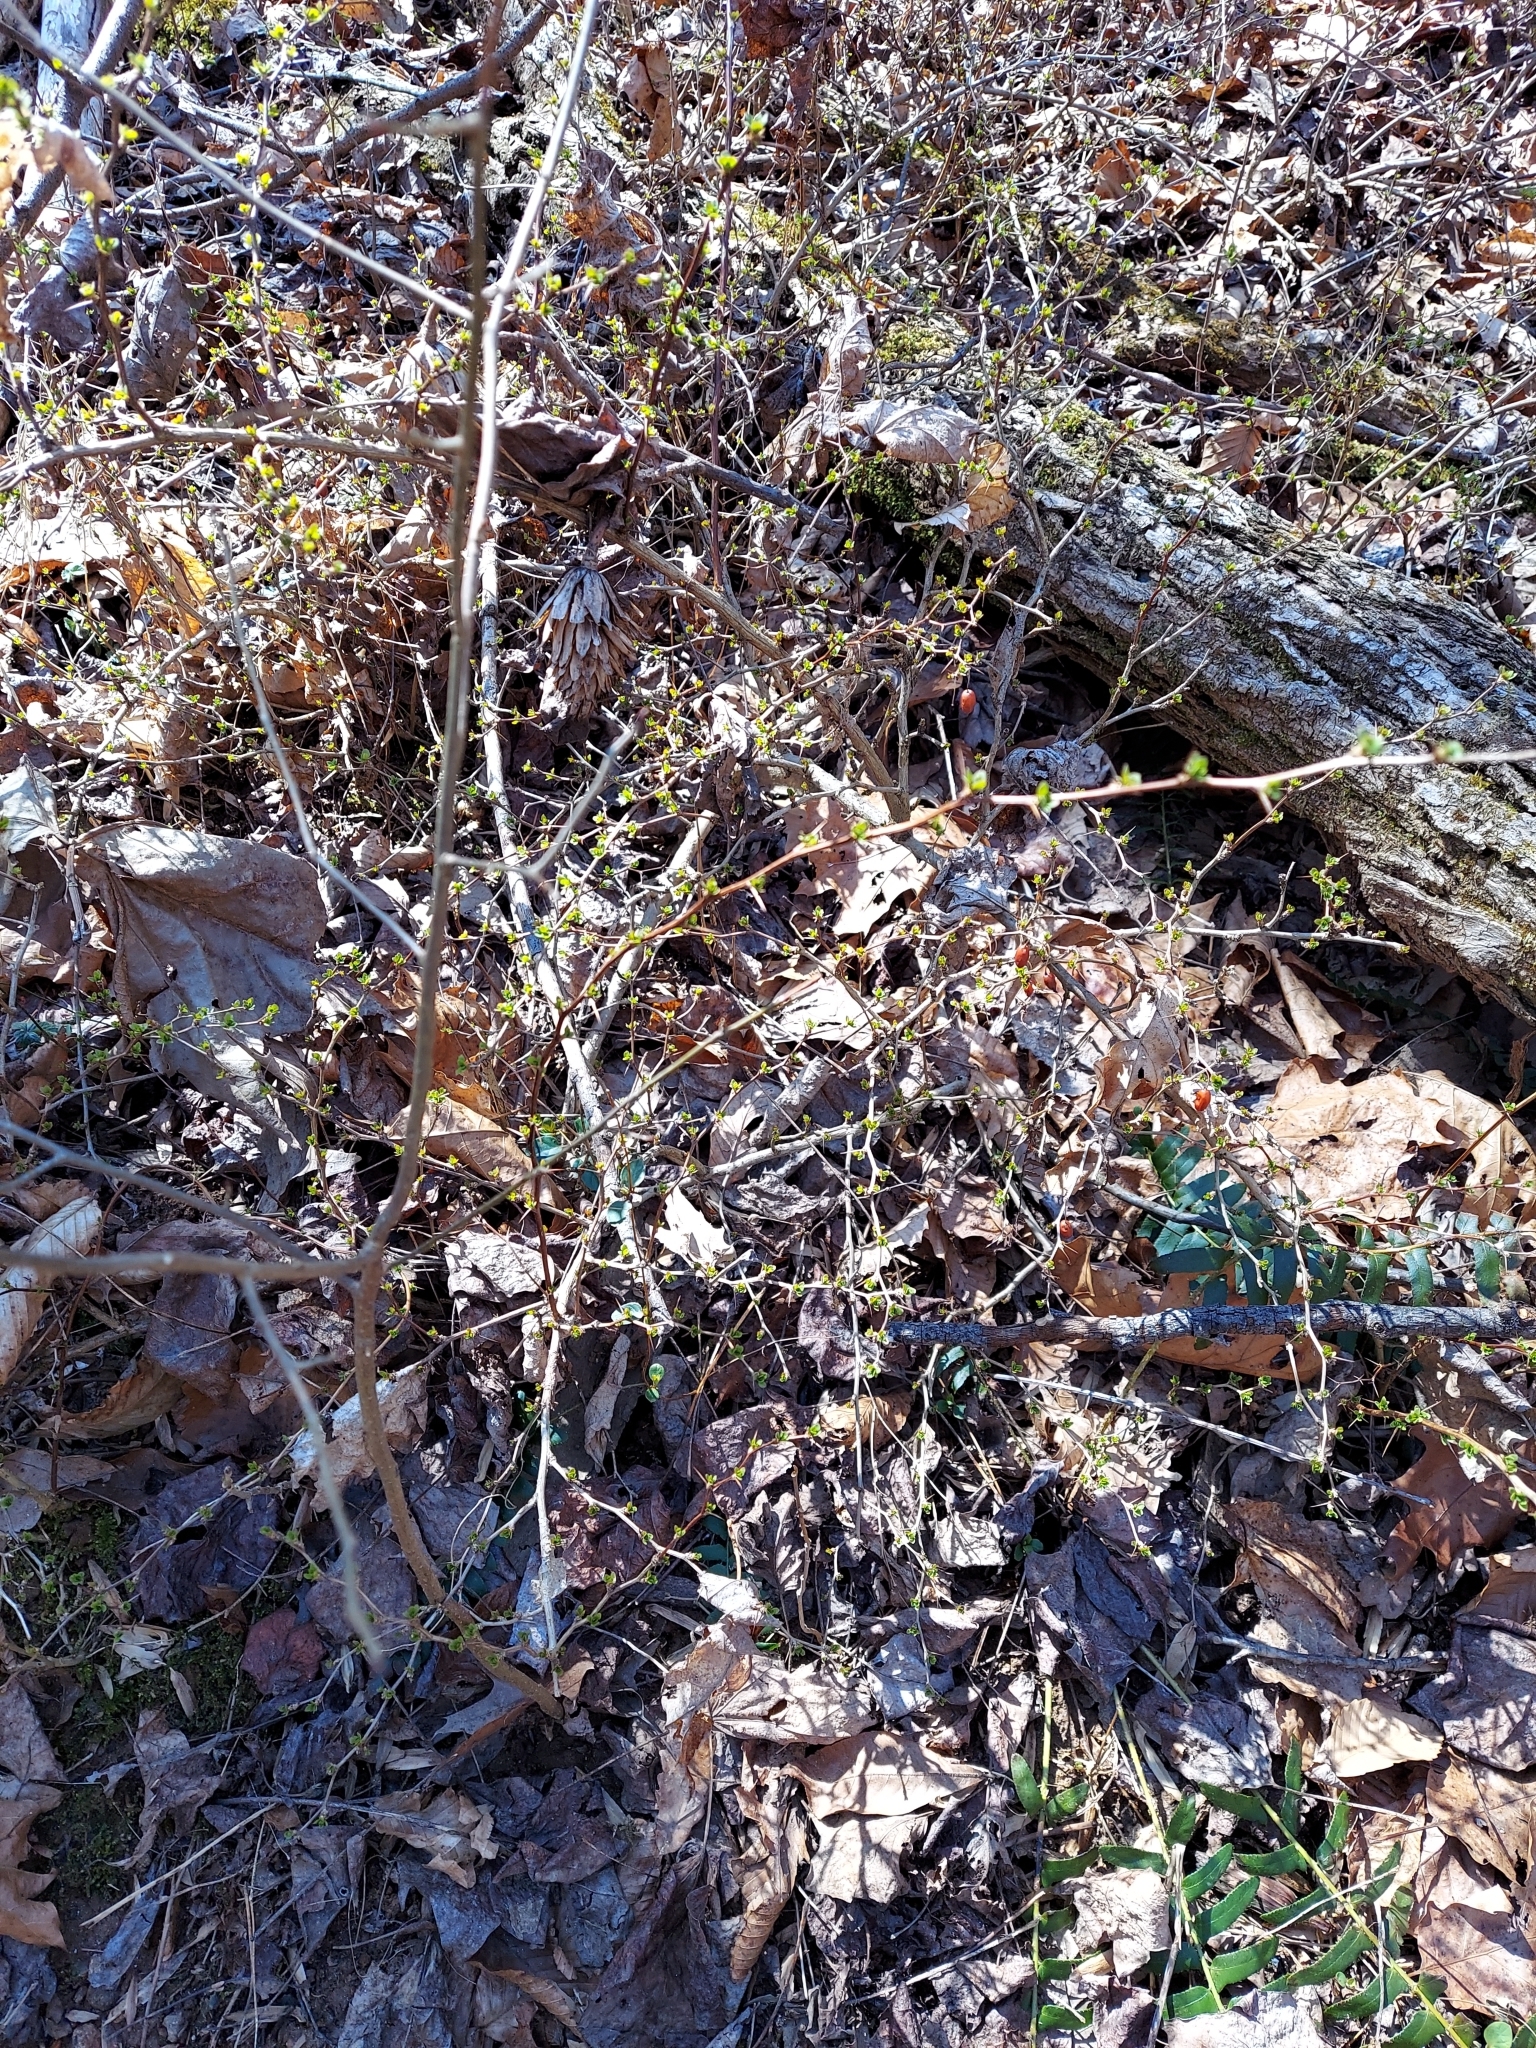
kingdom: Plantae
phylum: Tracheophyta
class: Magnoliopsida
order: Ranunculales
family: Berberidaceae
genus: Berberis
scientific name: Berberis thunbergii
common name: Japanese barberry
